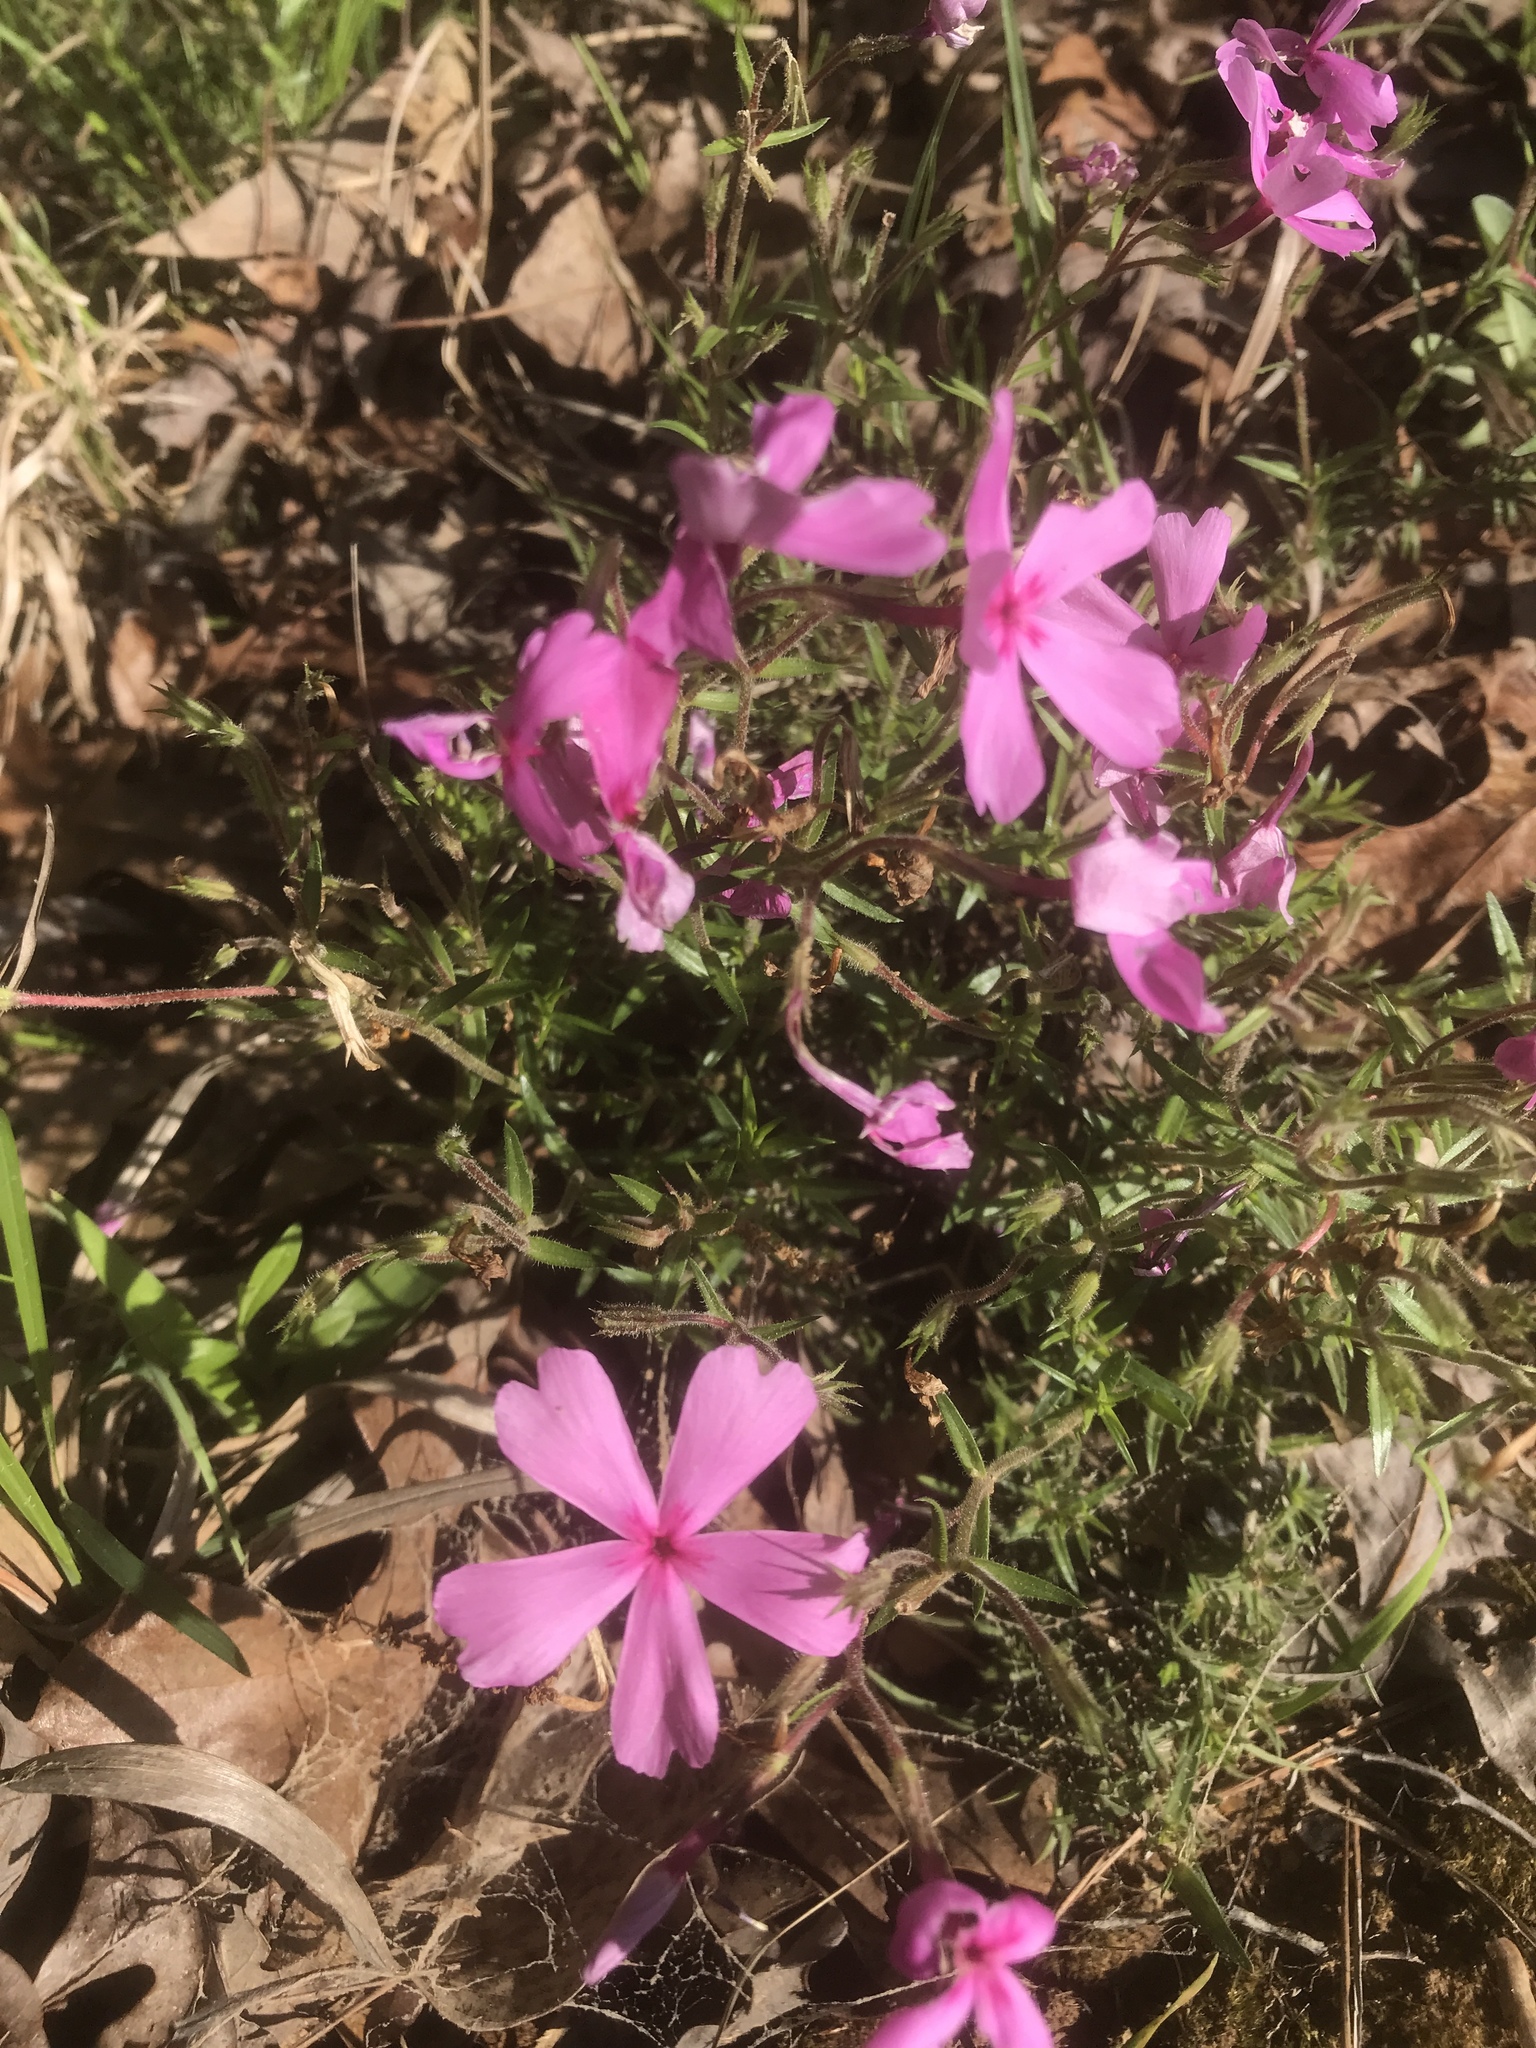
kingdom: Plantae
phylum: Tracheophyta
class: Magnoliopsida
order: Ericales
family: Polemoniaceae
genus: Phlox
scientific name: Phlox nivalis
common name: Trailing phlox
